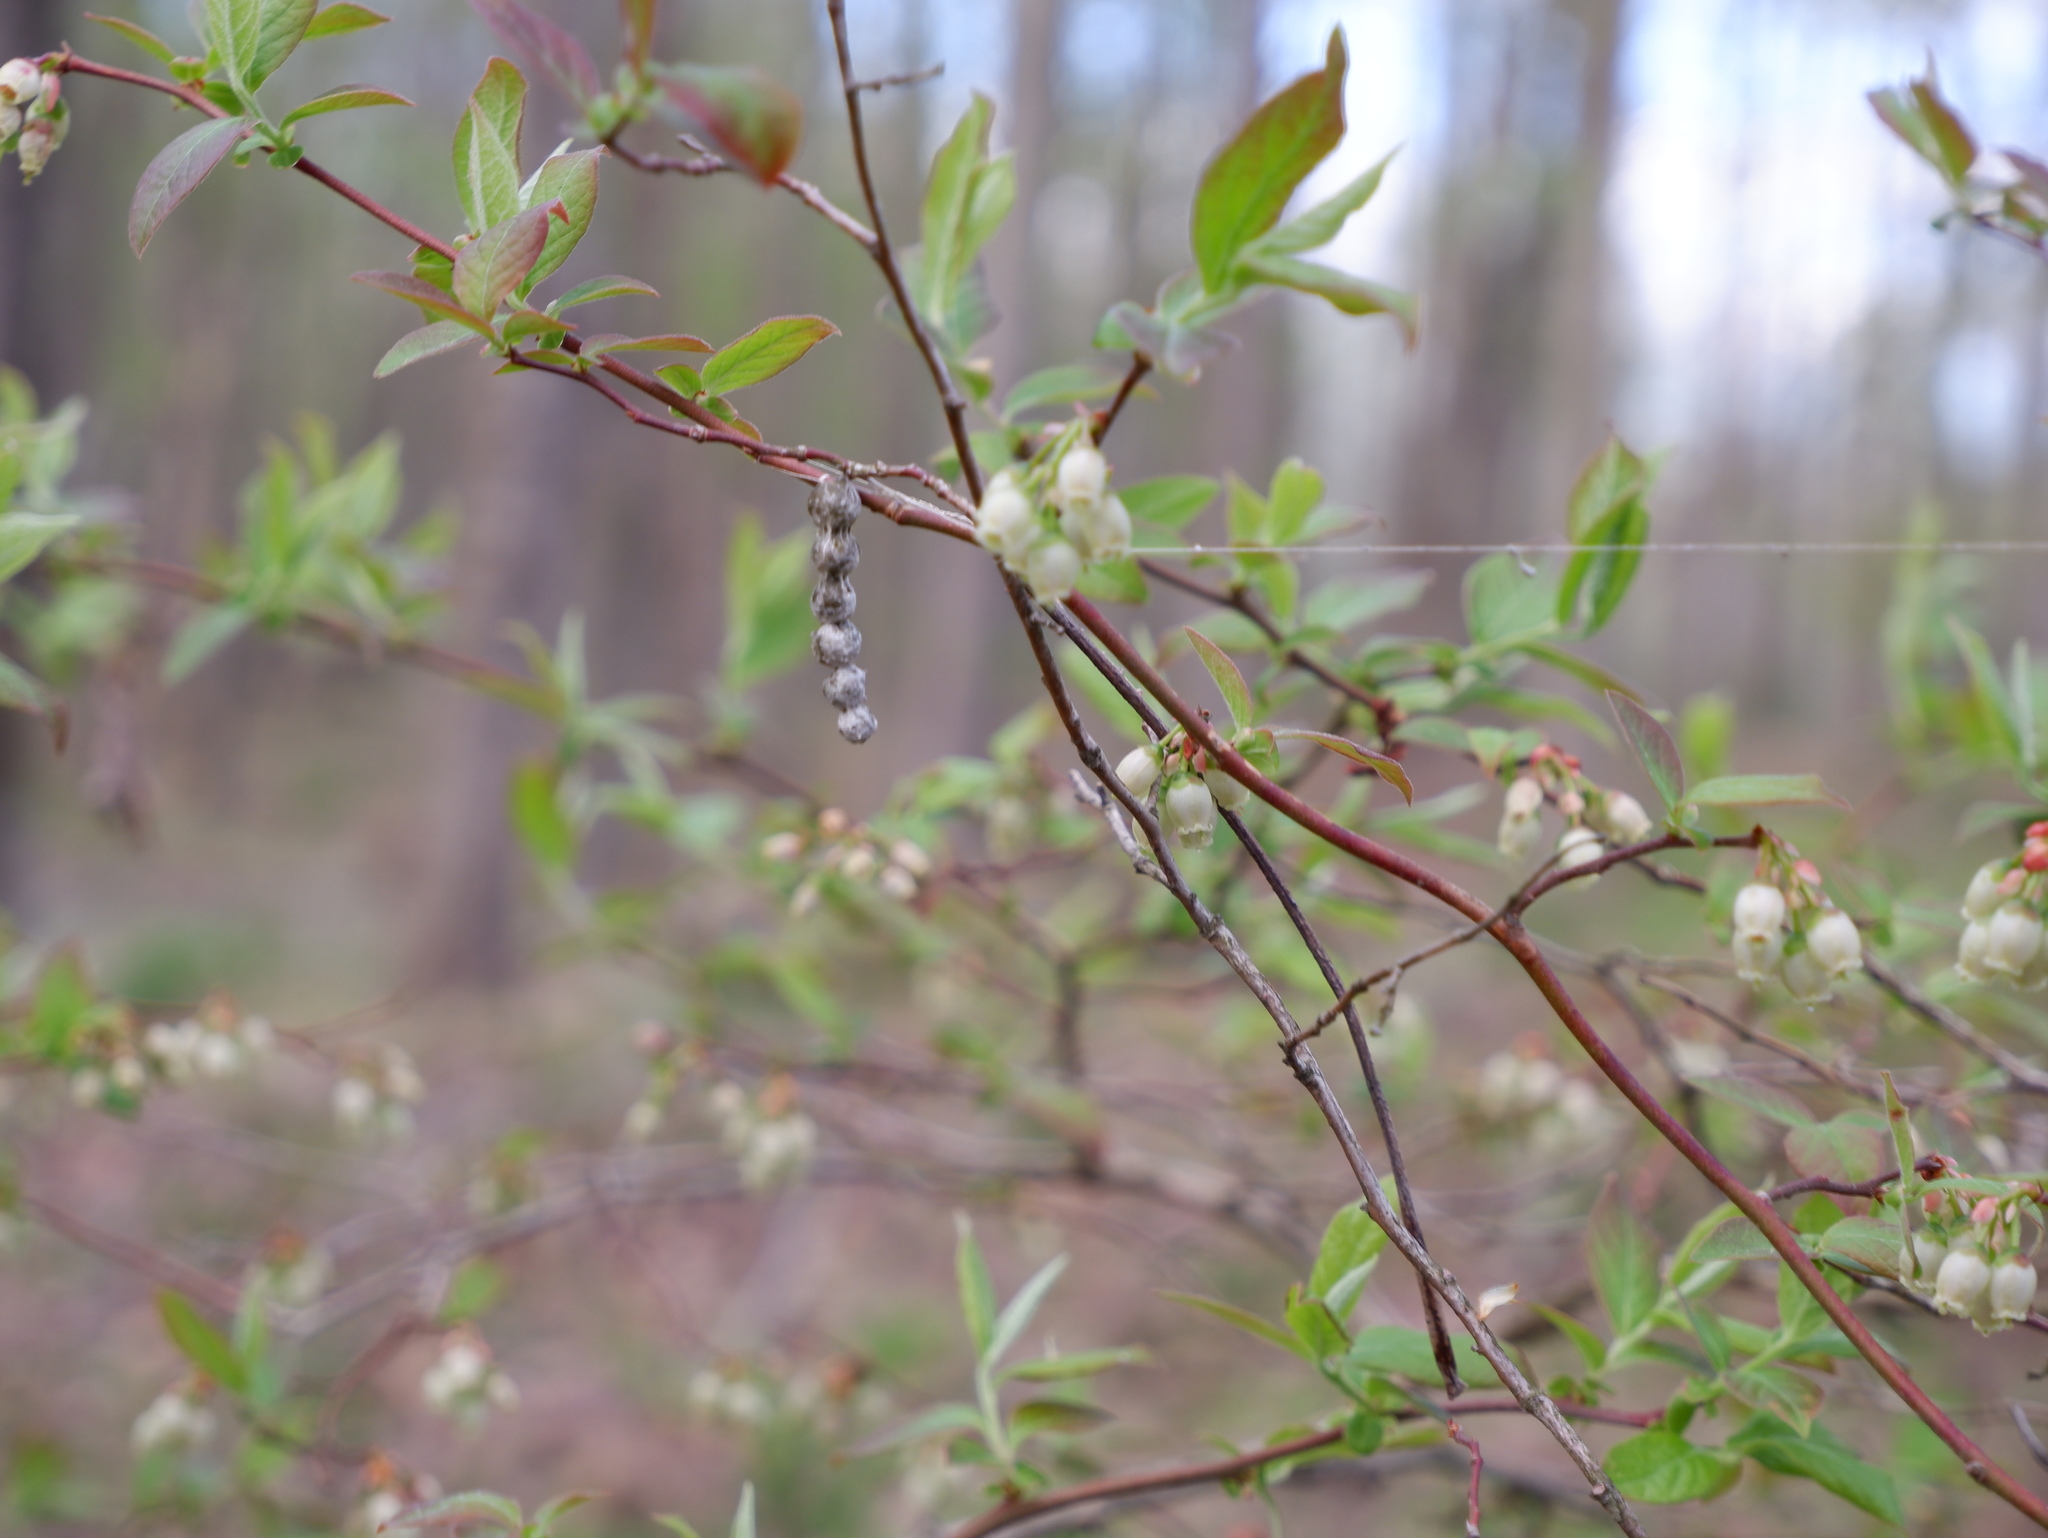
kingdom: Animalia
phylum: Arthropoda
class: Arachnida
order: Araneae
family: Araneidae
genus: Mecynogea
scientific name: Mecynogea lemniscata
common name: Orb weavers
